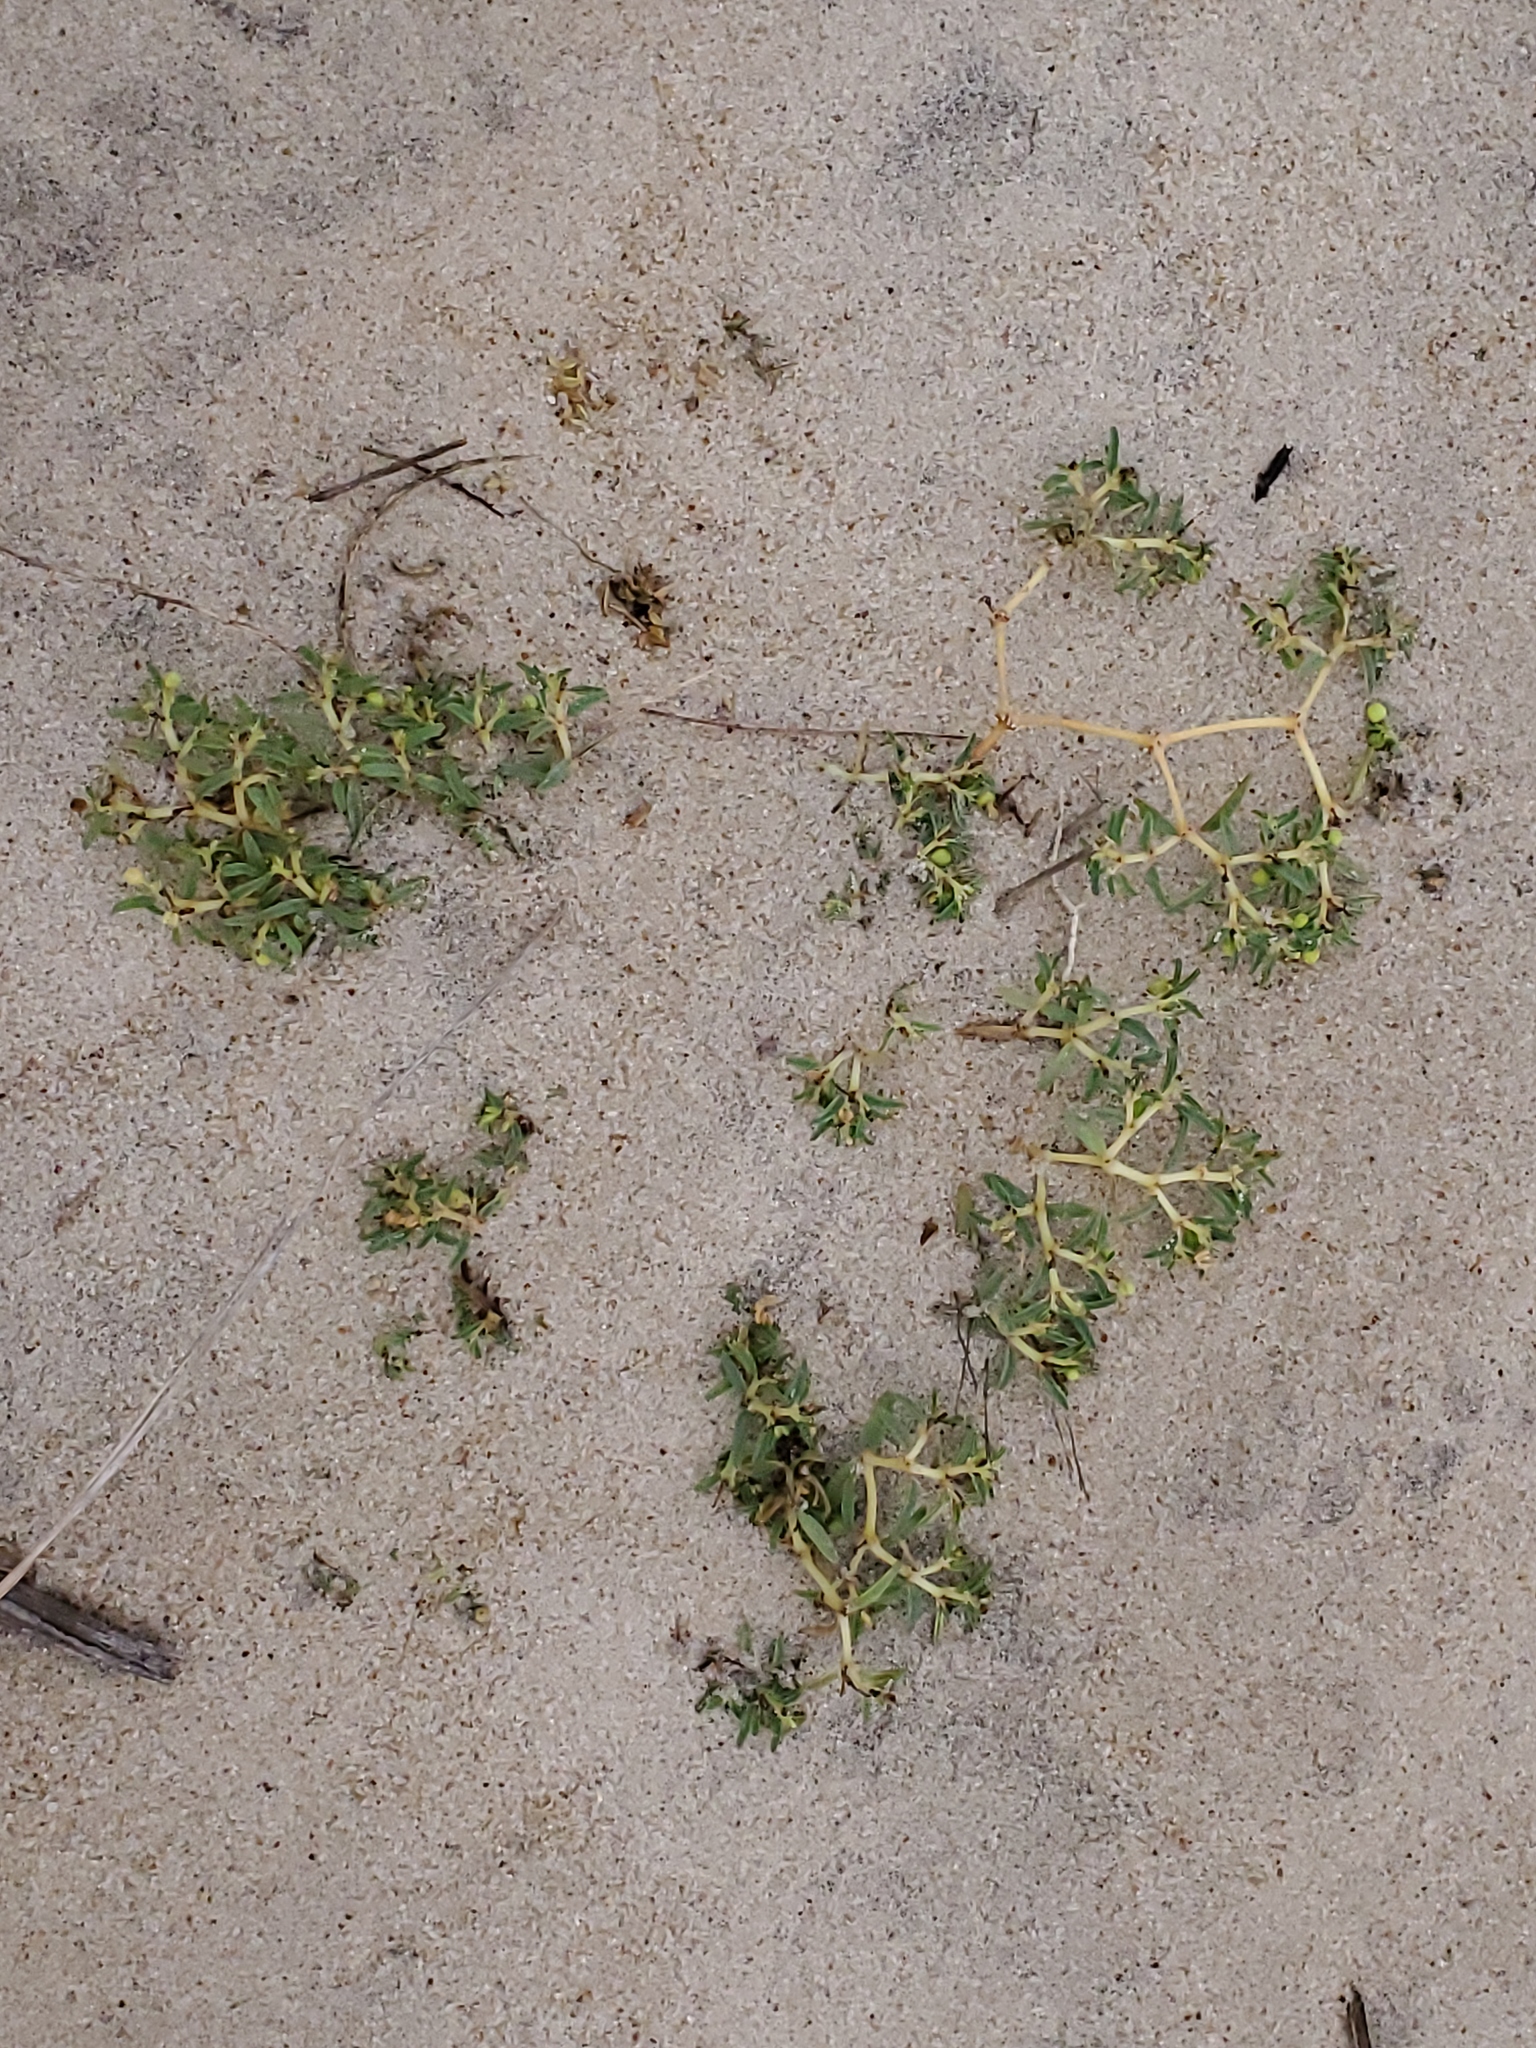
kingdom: Plantae
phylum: Tracheophyta
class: Magnoliopsida
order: Malpighiales
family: Euphorbiaceae
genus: Euphorbia
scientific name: Euphorbia polygonifolia
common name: Knotweed spurge
